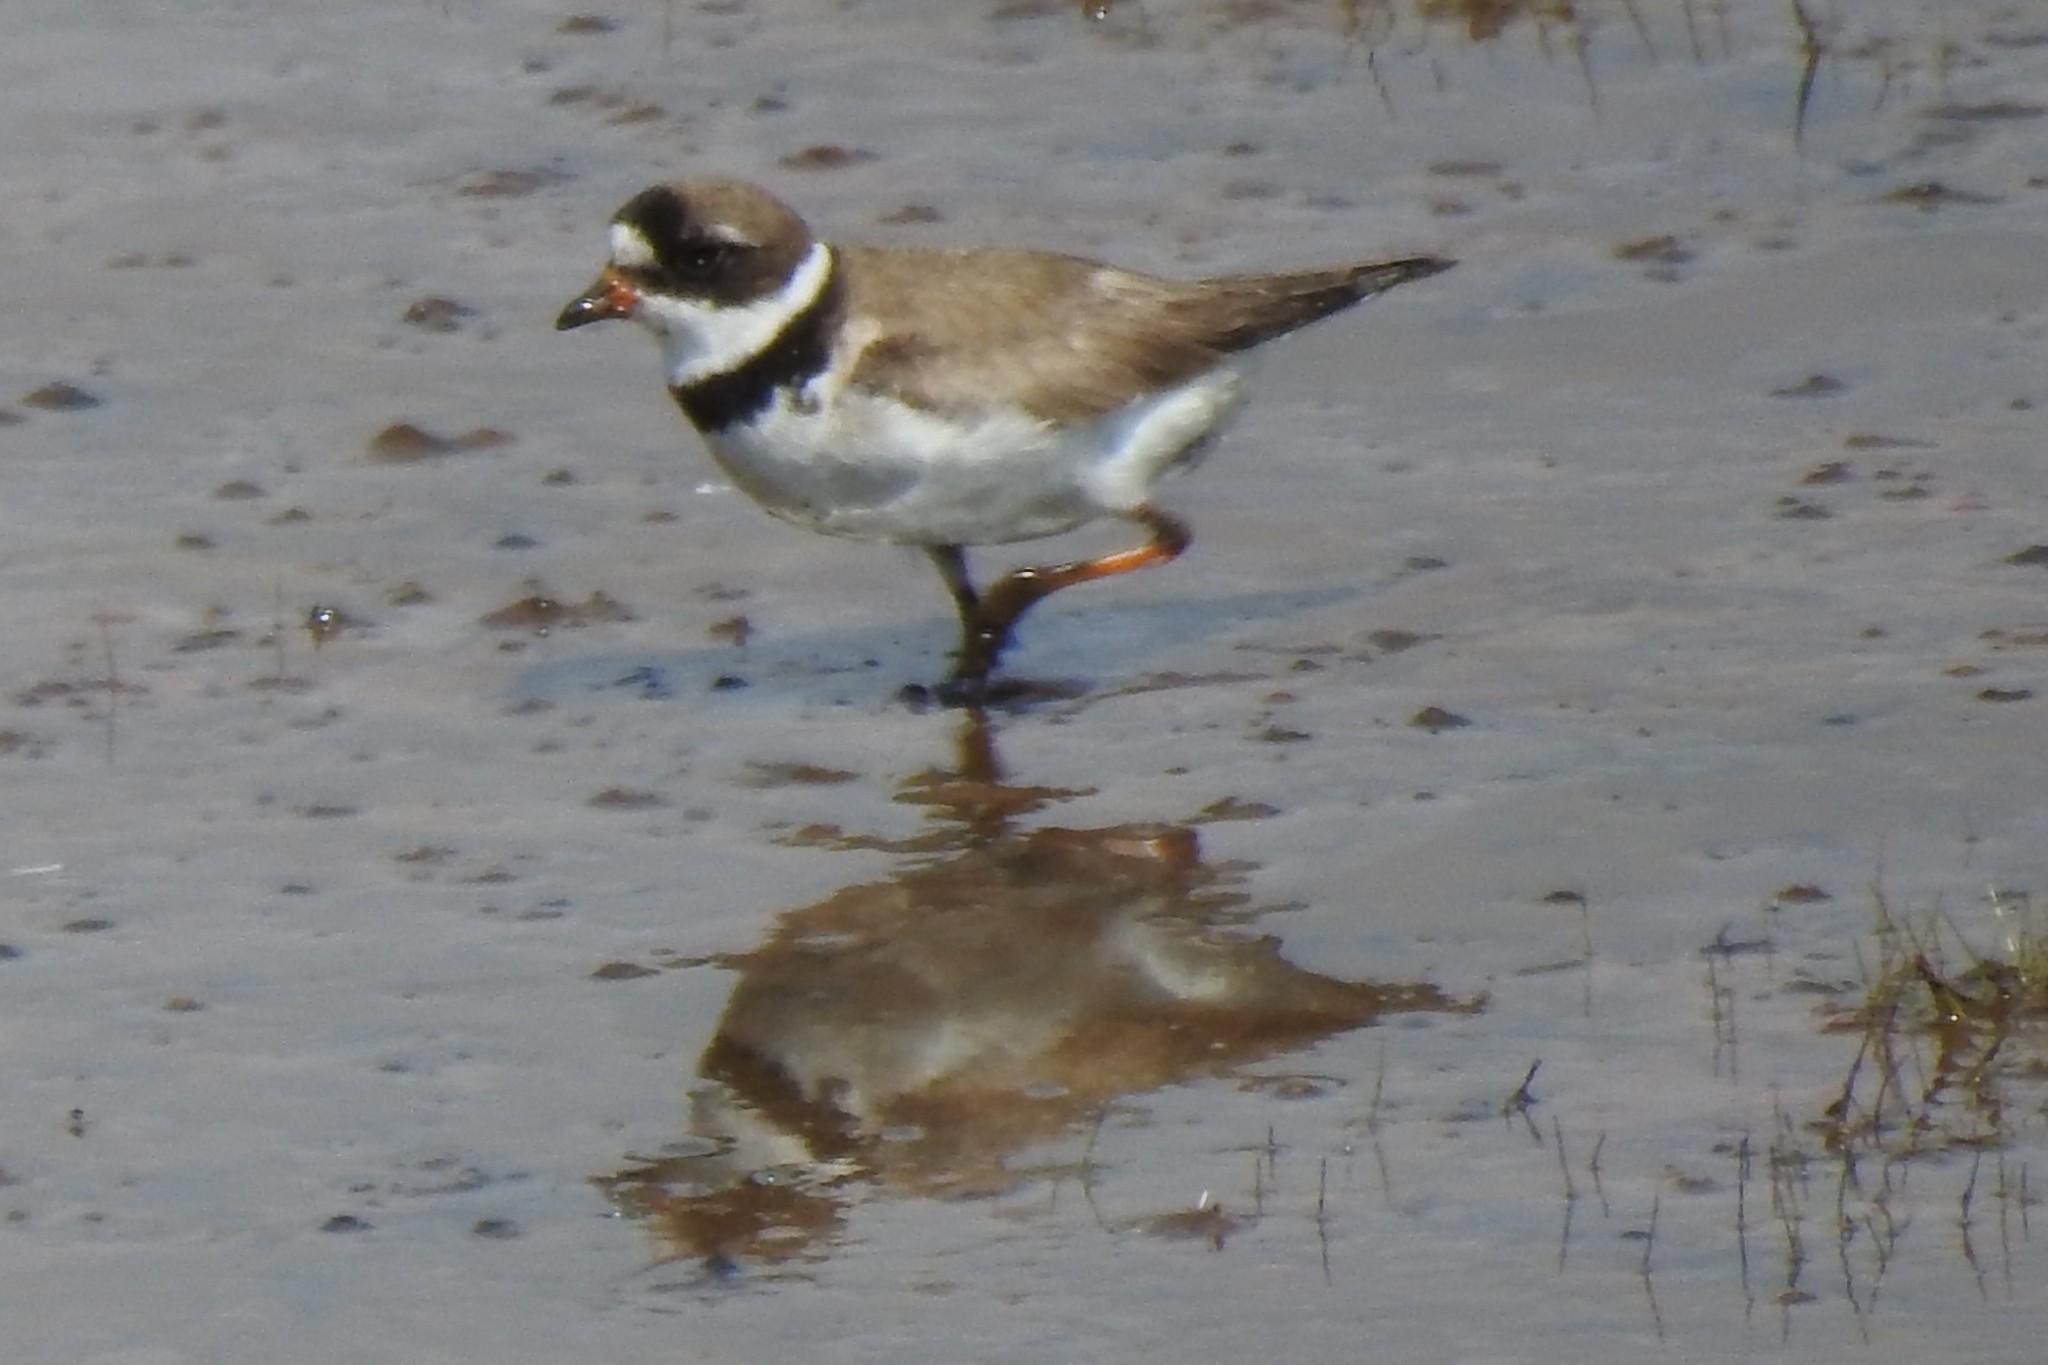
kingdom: Animalia
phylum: Chordata
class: Aves
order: Charadriiformes
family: Charadriidae
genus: Charadrius
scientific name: Charadrius semipalmatus
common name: Semipalmated plover
